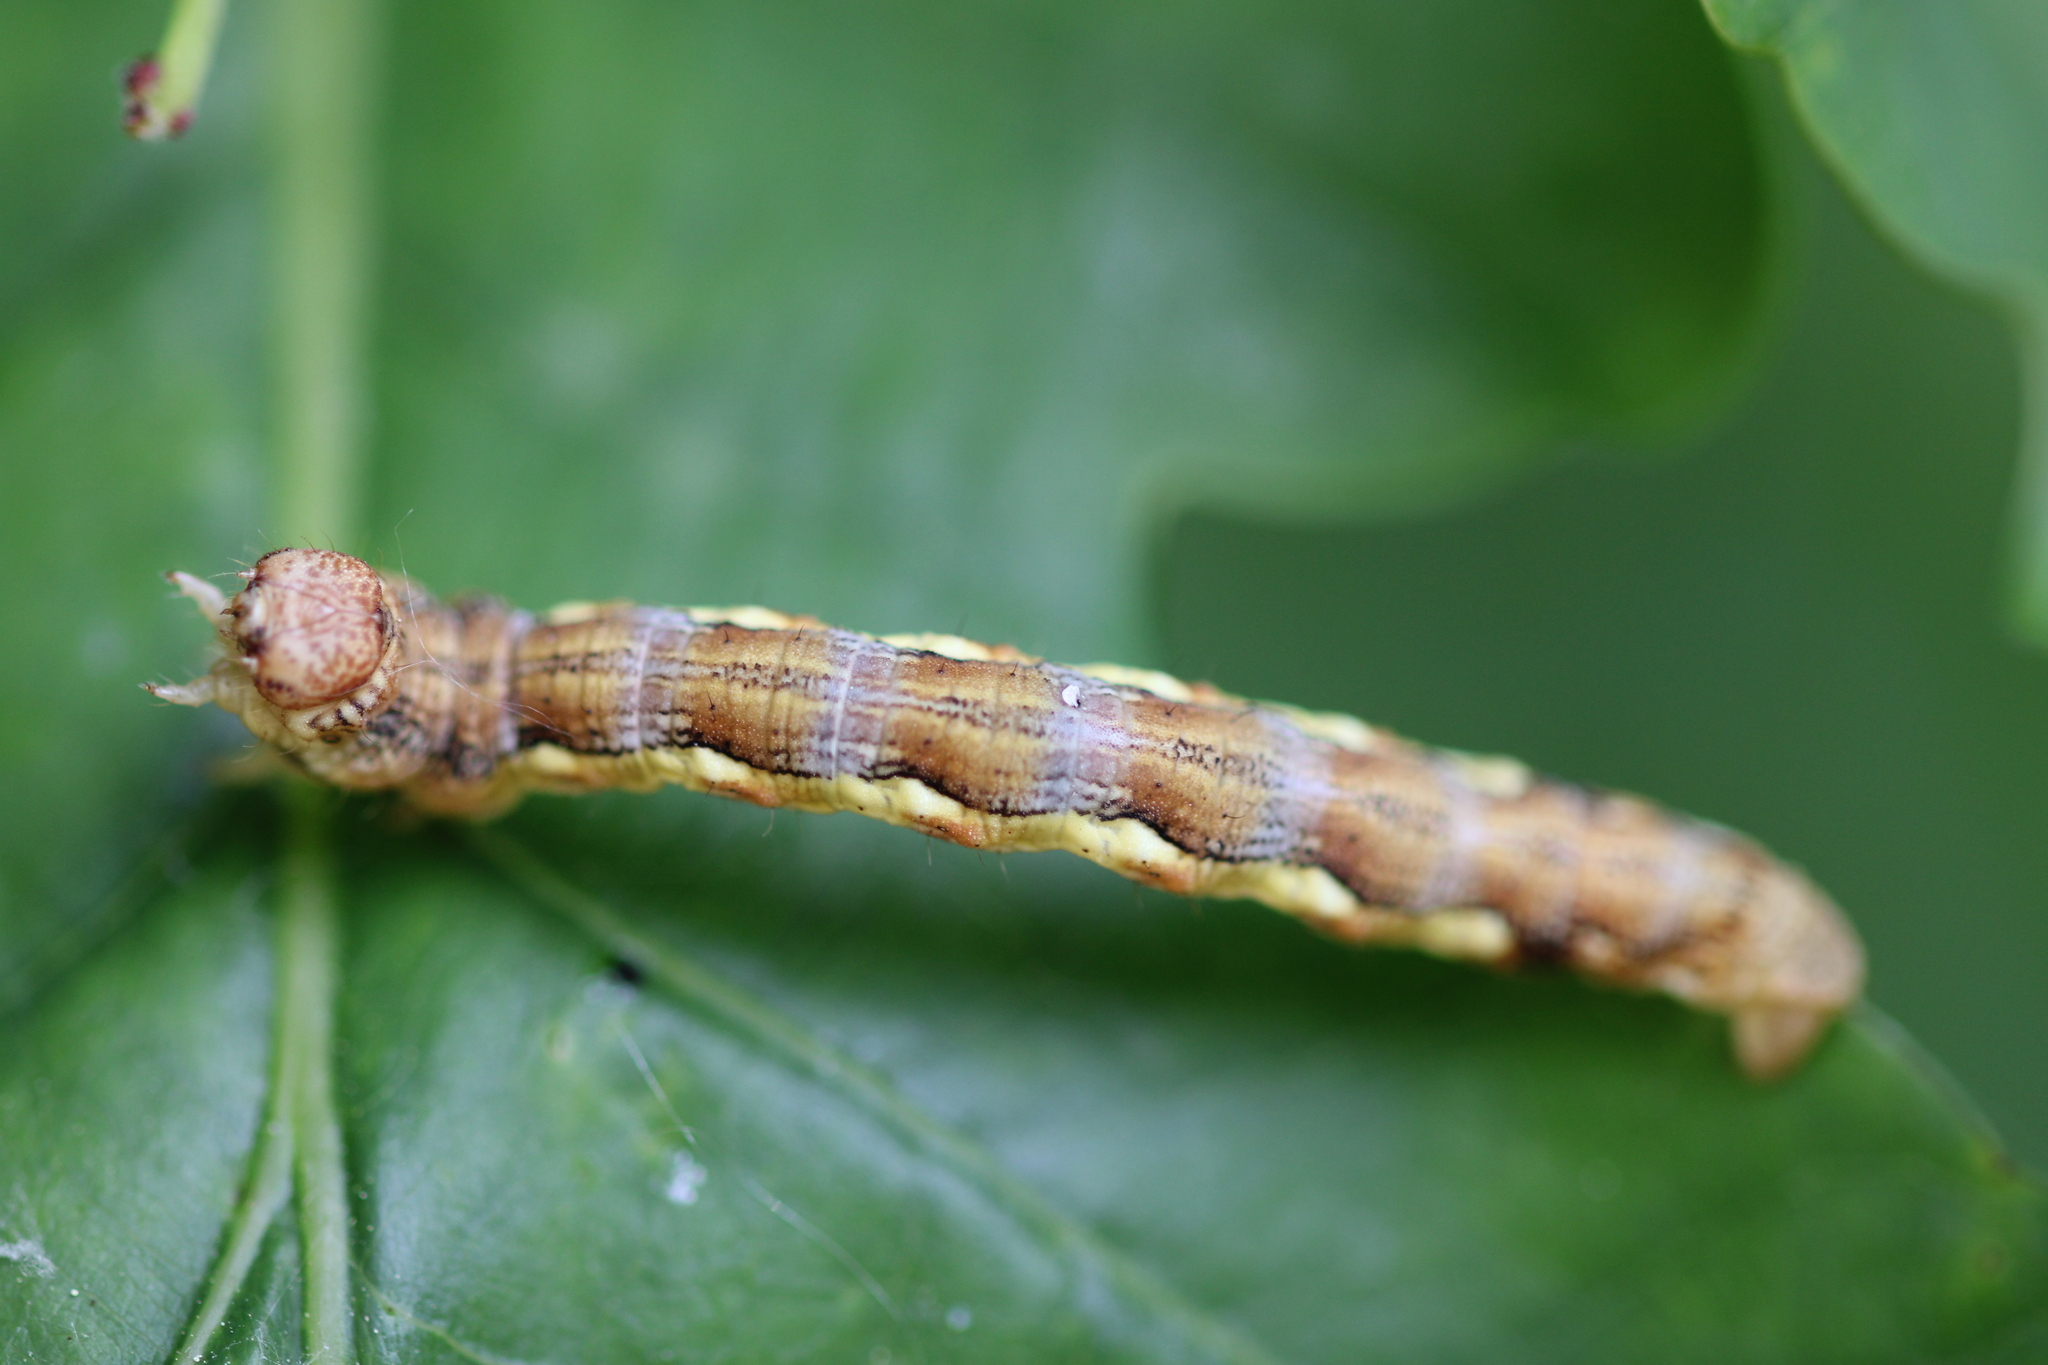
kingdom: Animalia
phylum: Arthropoda
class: Insecta
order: Lepidoptera
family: Geometridae
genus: Erannis
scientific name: Erannis defoliaria
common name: Mottled umber
